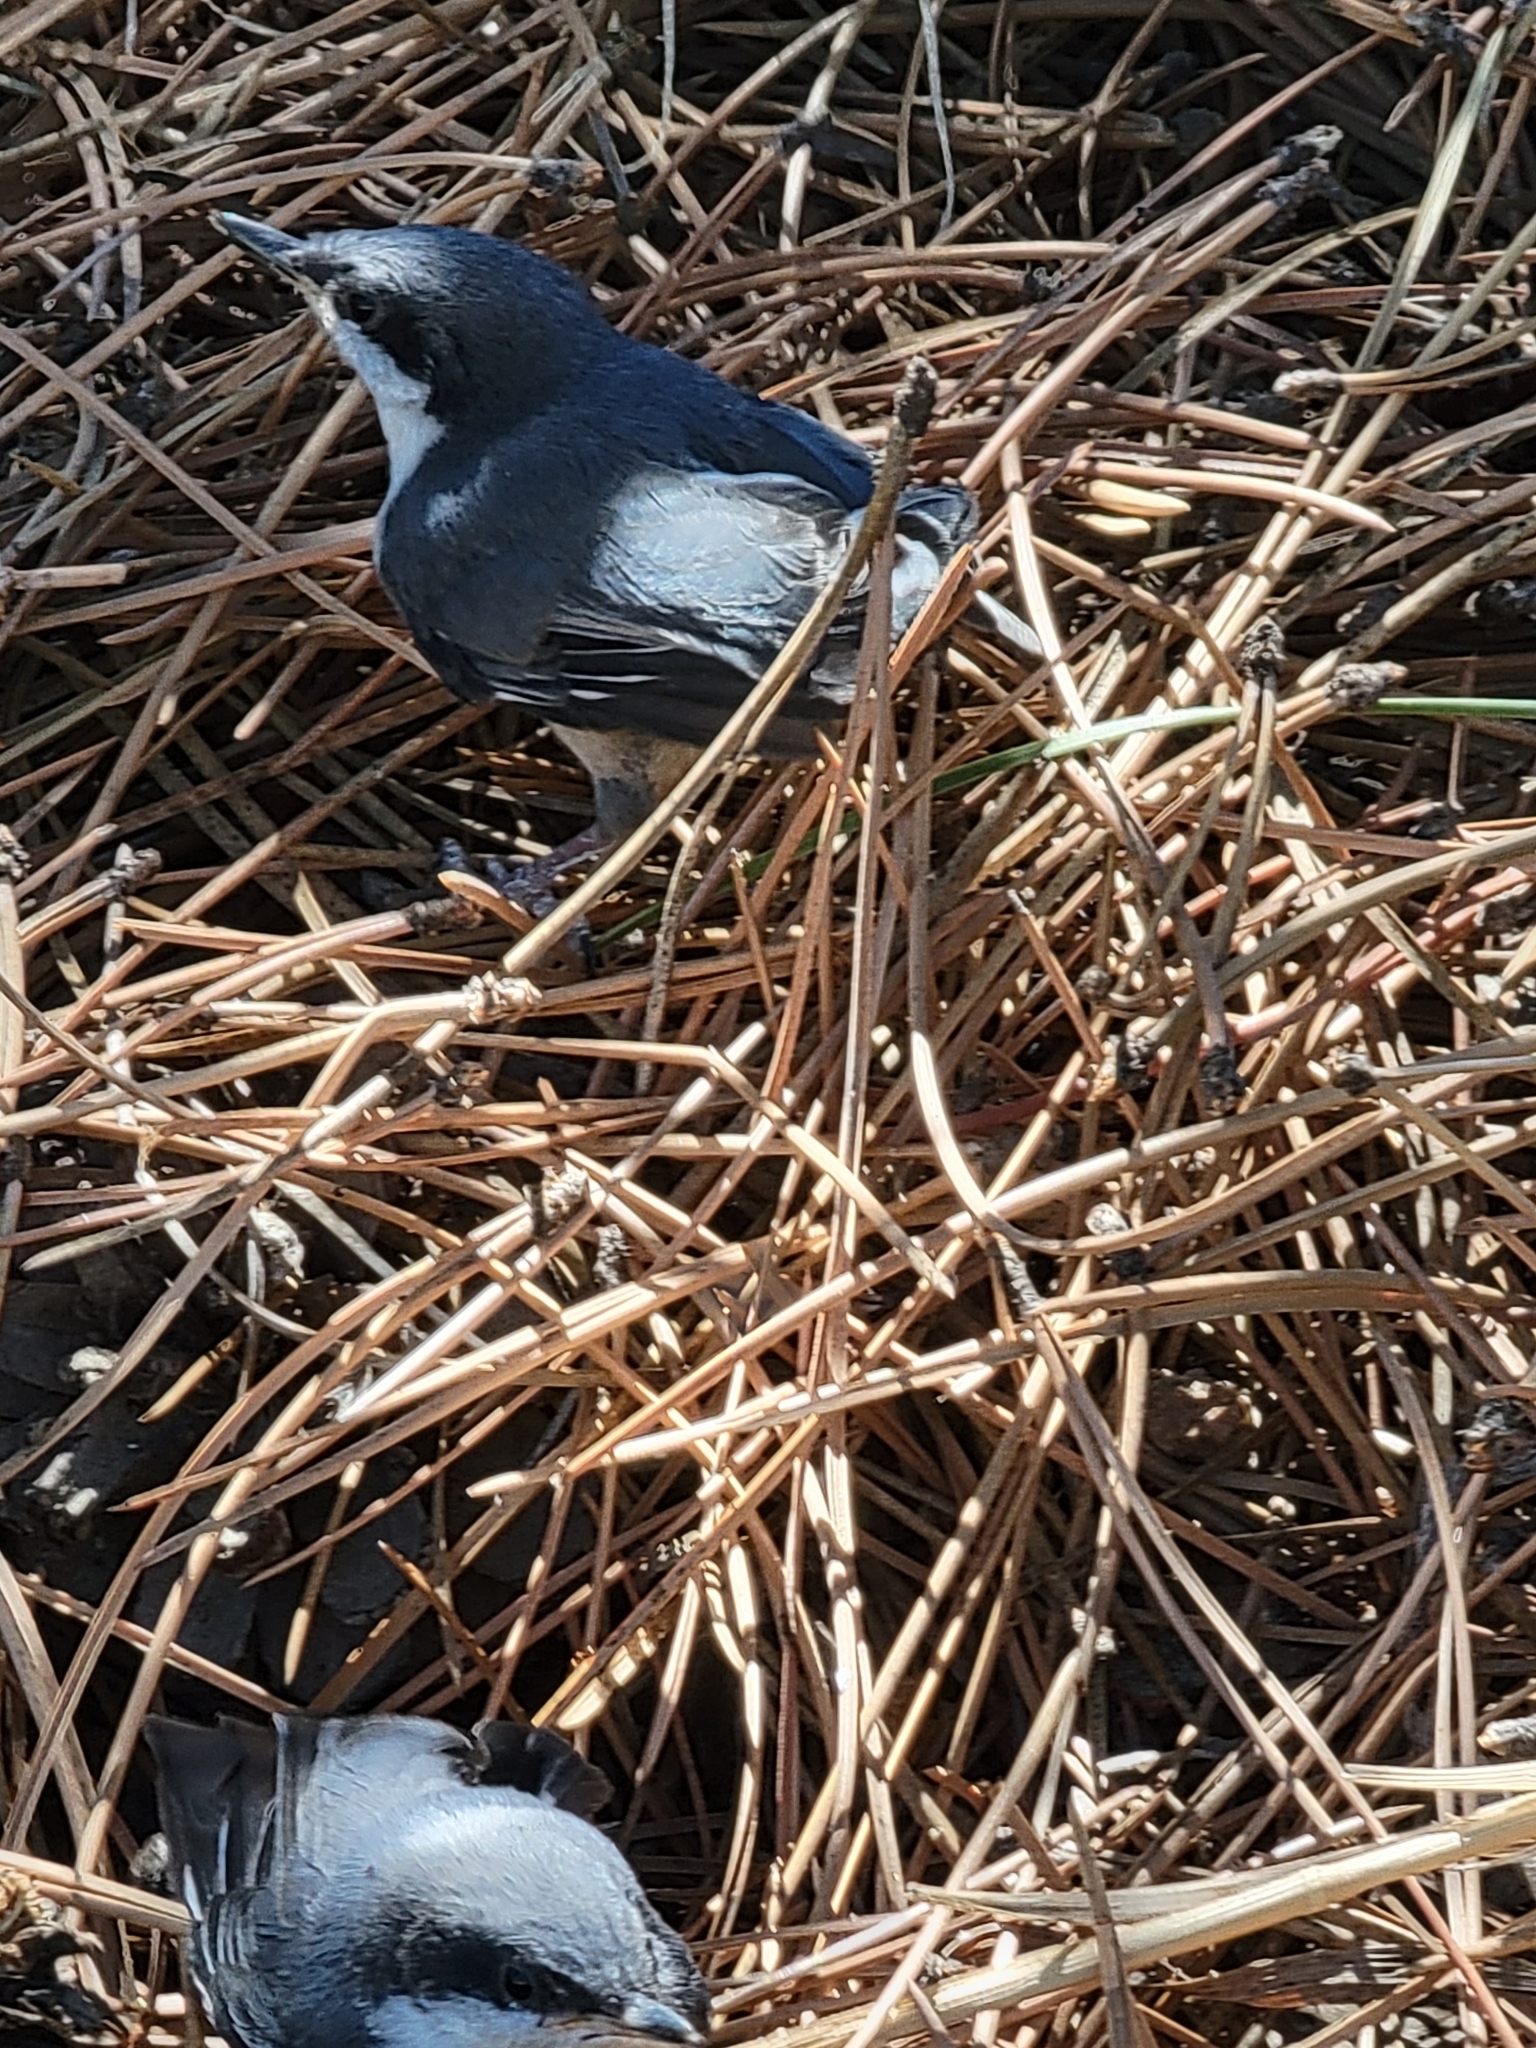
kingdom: Animalia
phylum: Chordata
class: Aves
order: Passeriformes
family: Sittidae
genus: Sitta
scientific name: Sitta pygmaea
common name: Pygmy nuthatch
